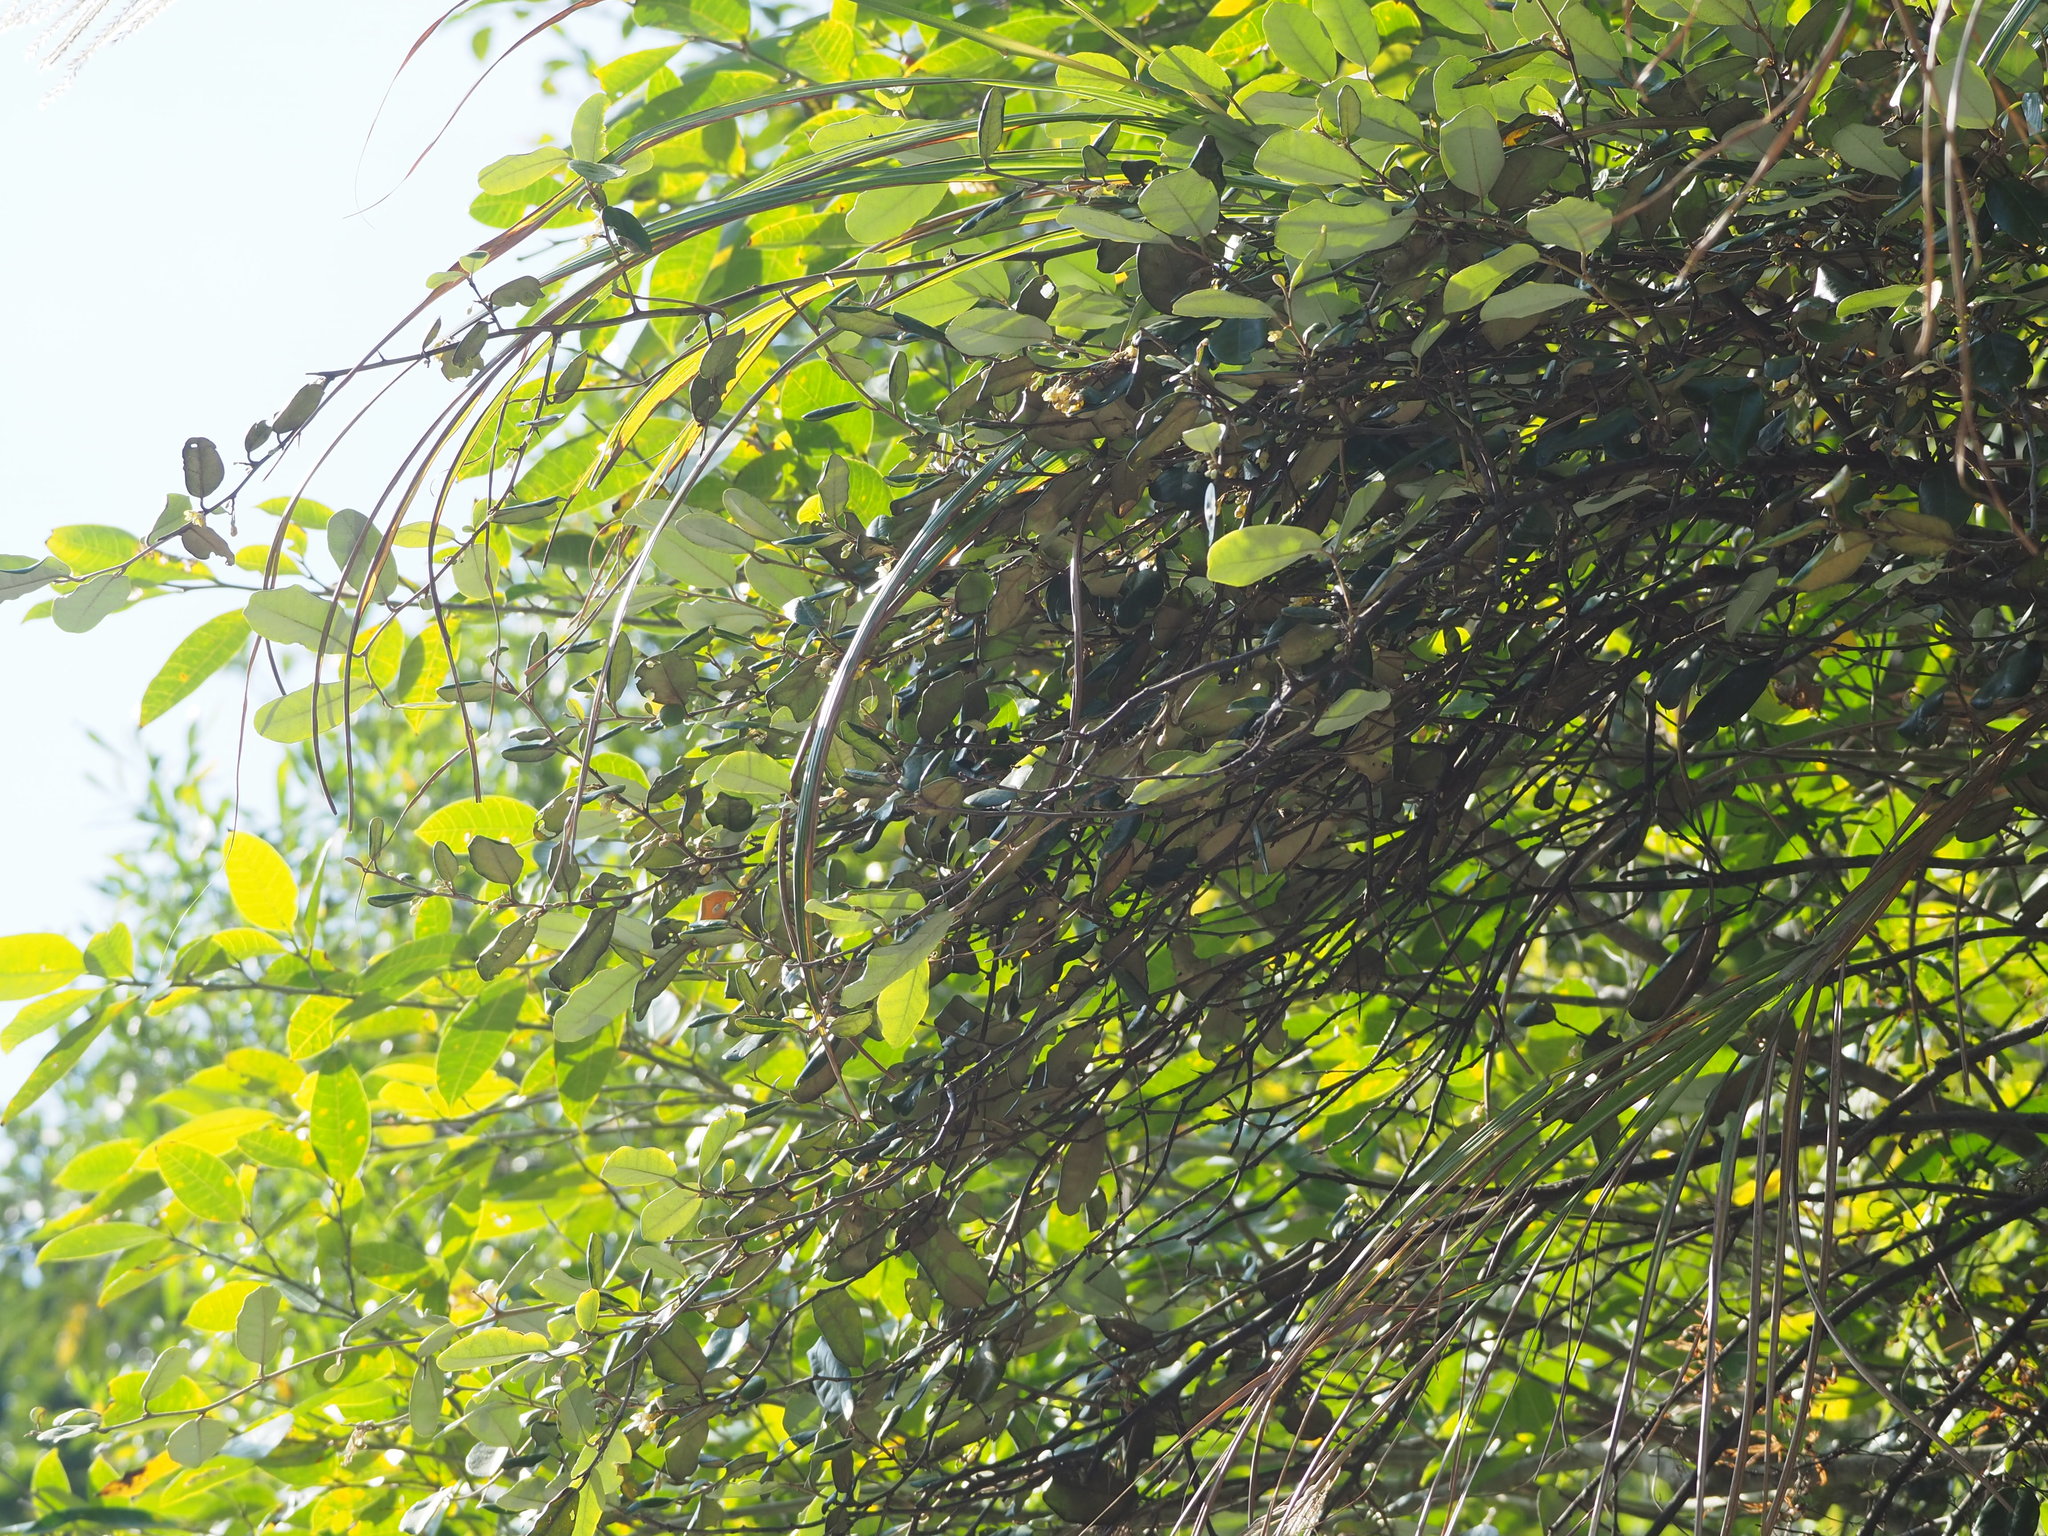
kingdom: Plantae
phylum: Tracheophyta
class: Magnoliopsida
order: Rosales
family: Elaeagnaceae
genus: Elaeagnus
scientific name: Elaeagnus formosana
